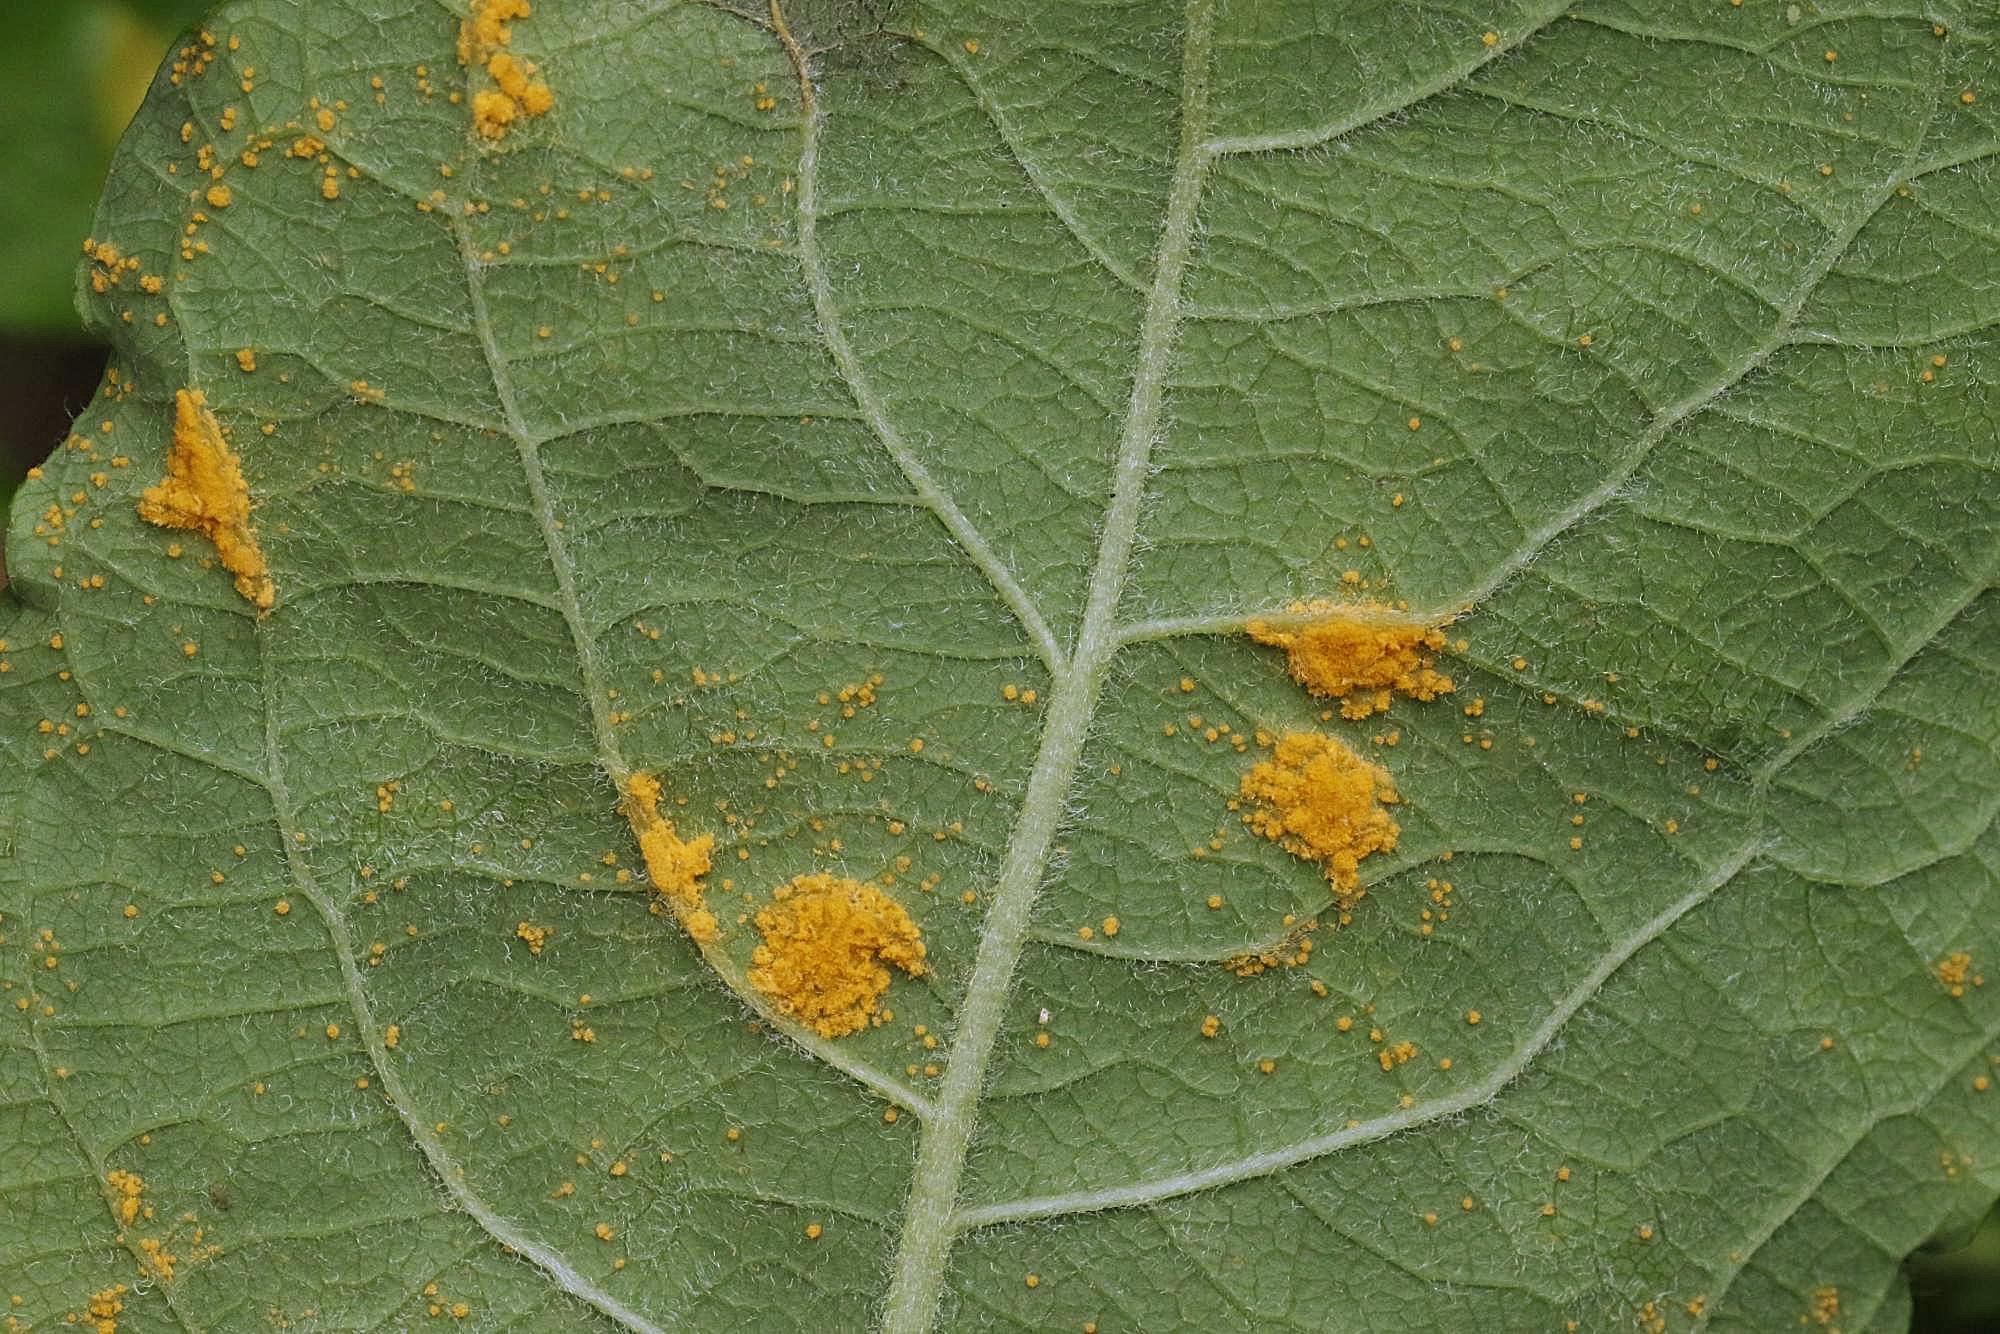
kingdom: Fungi
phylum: Basidiomycota
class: Pucciniomycetes
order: Pucciniales
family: Melampsoraceae
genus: Melampsora
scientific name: Melampsora caprearum
